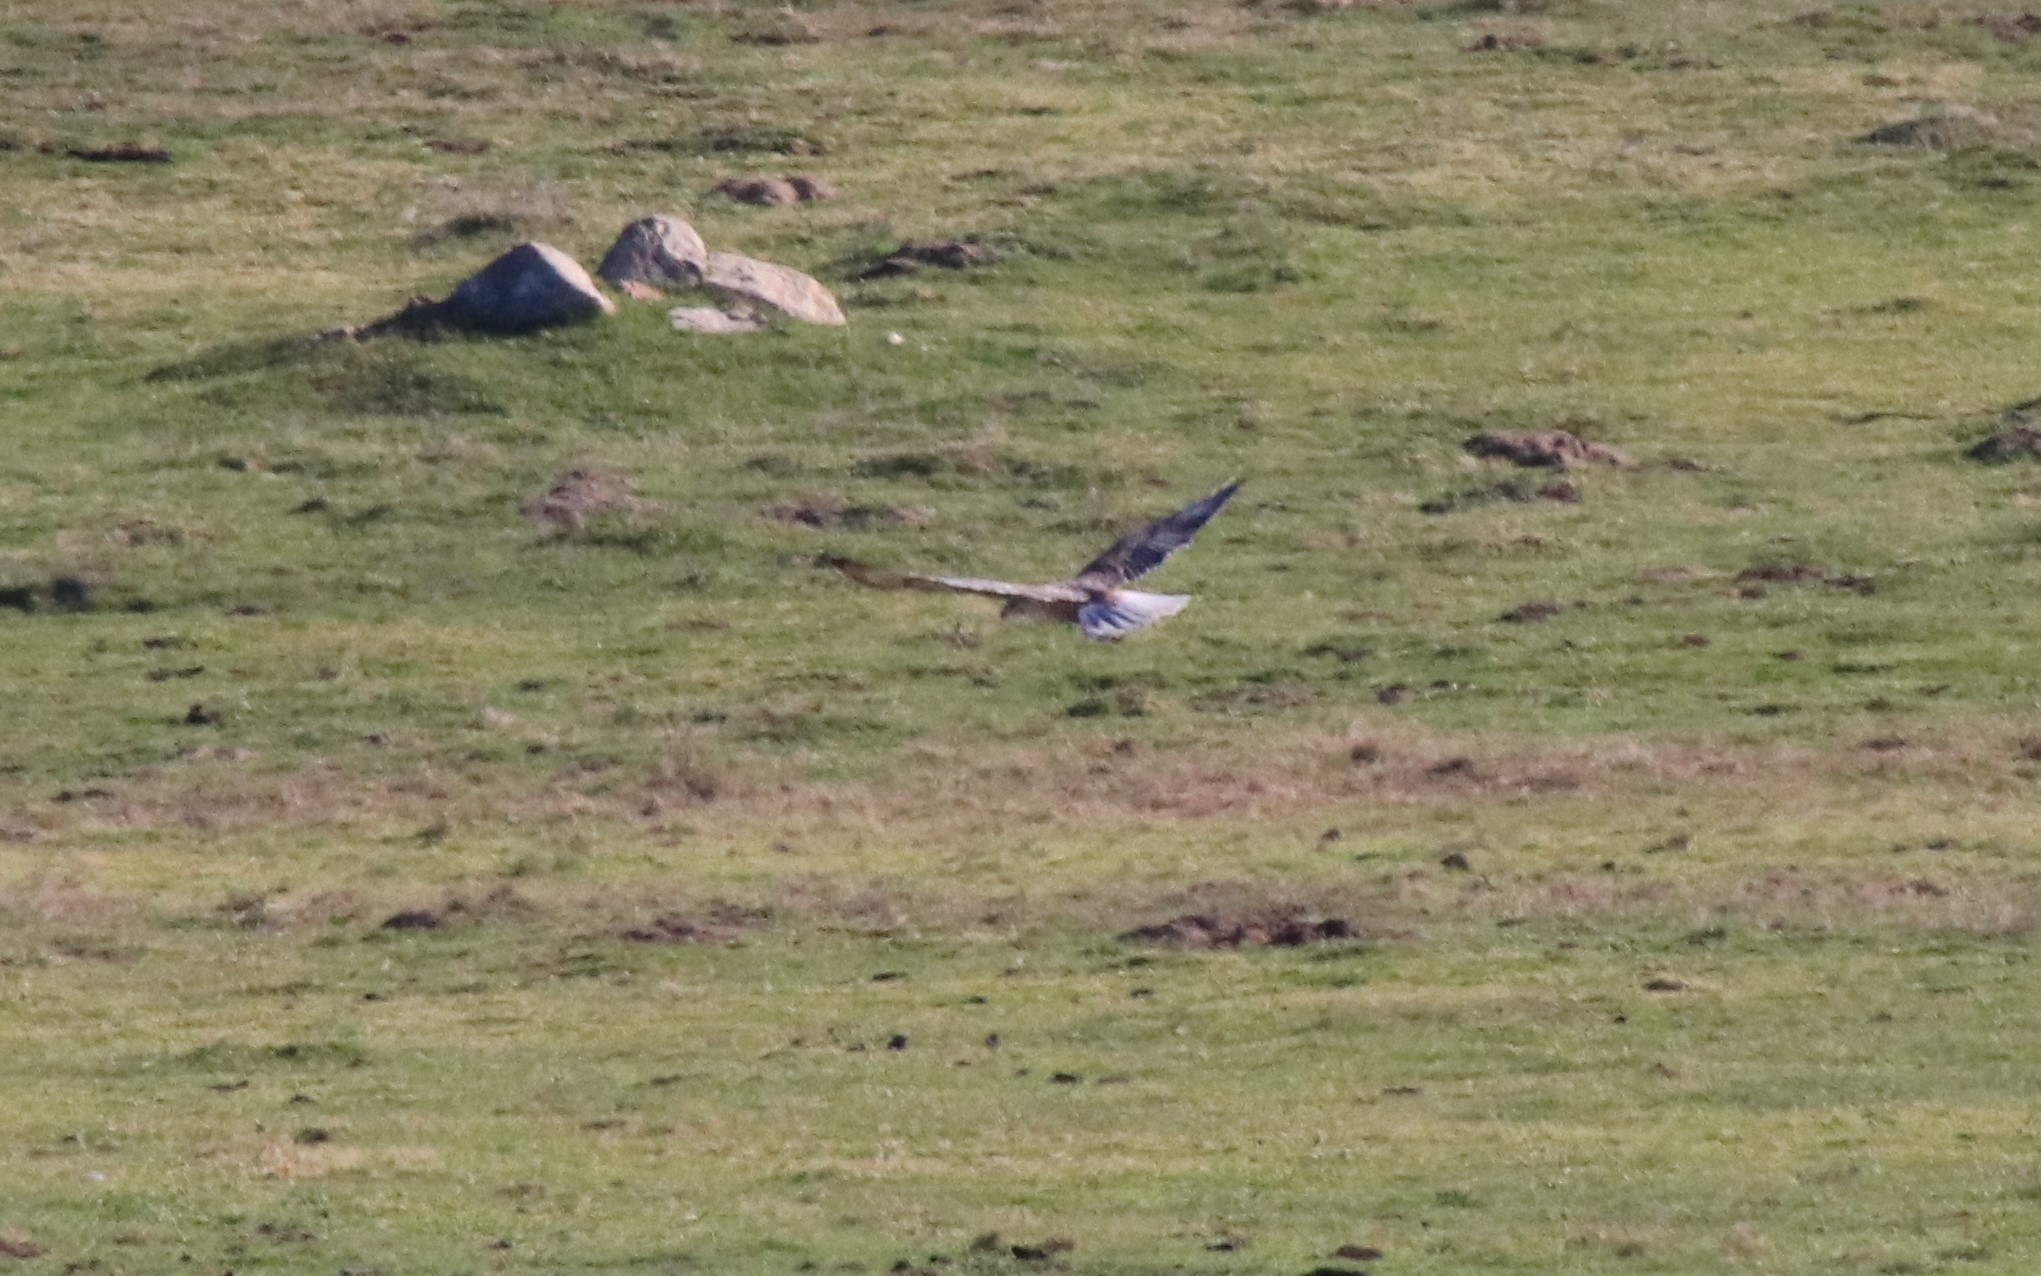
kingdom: Animalia
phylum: Chordata
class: Aves
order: Accipitriformes
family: Accipitridae
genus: Buteo
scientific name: Buteo regalis
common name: Ferruginous hawk
